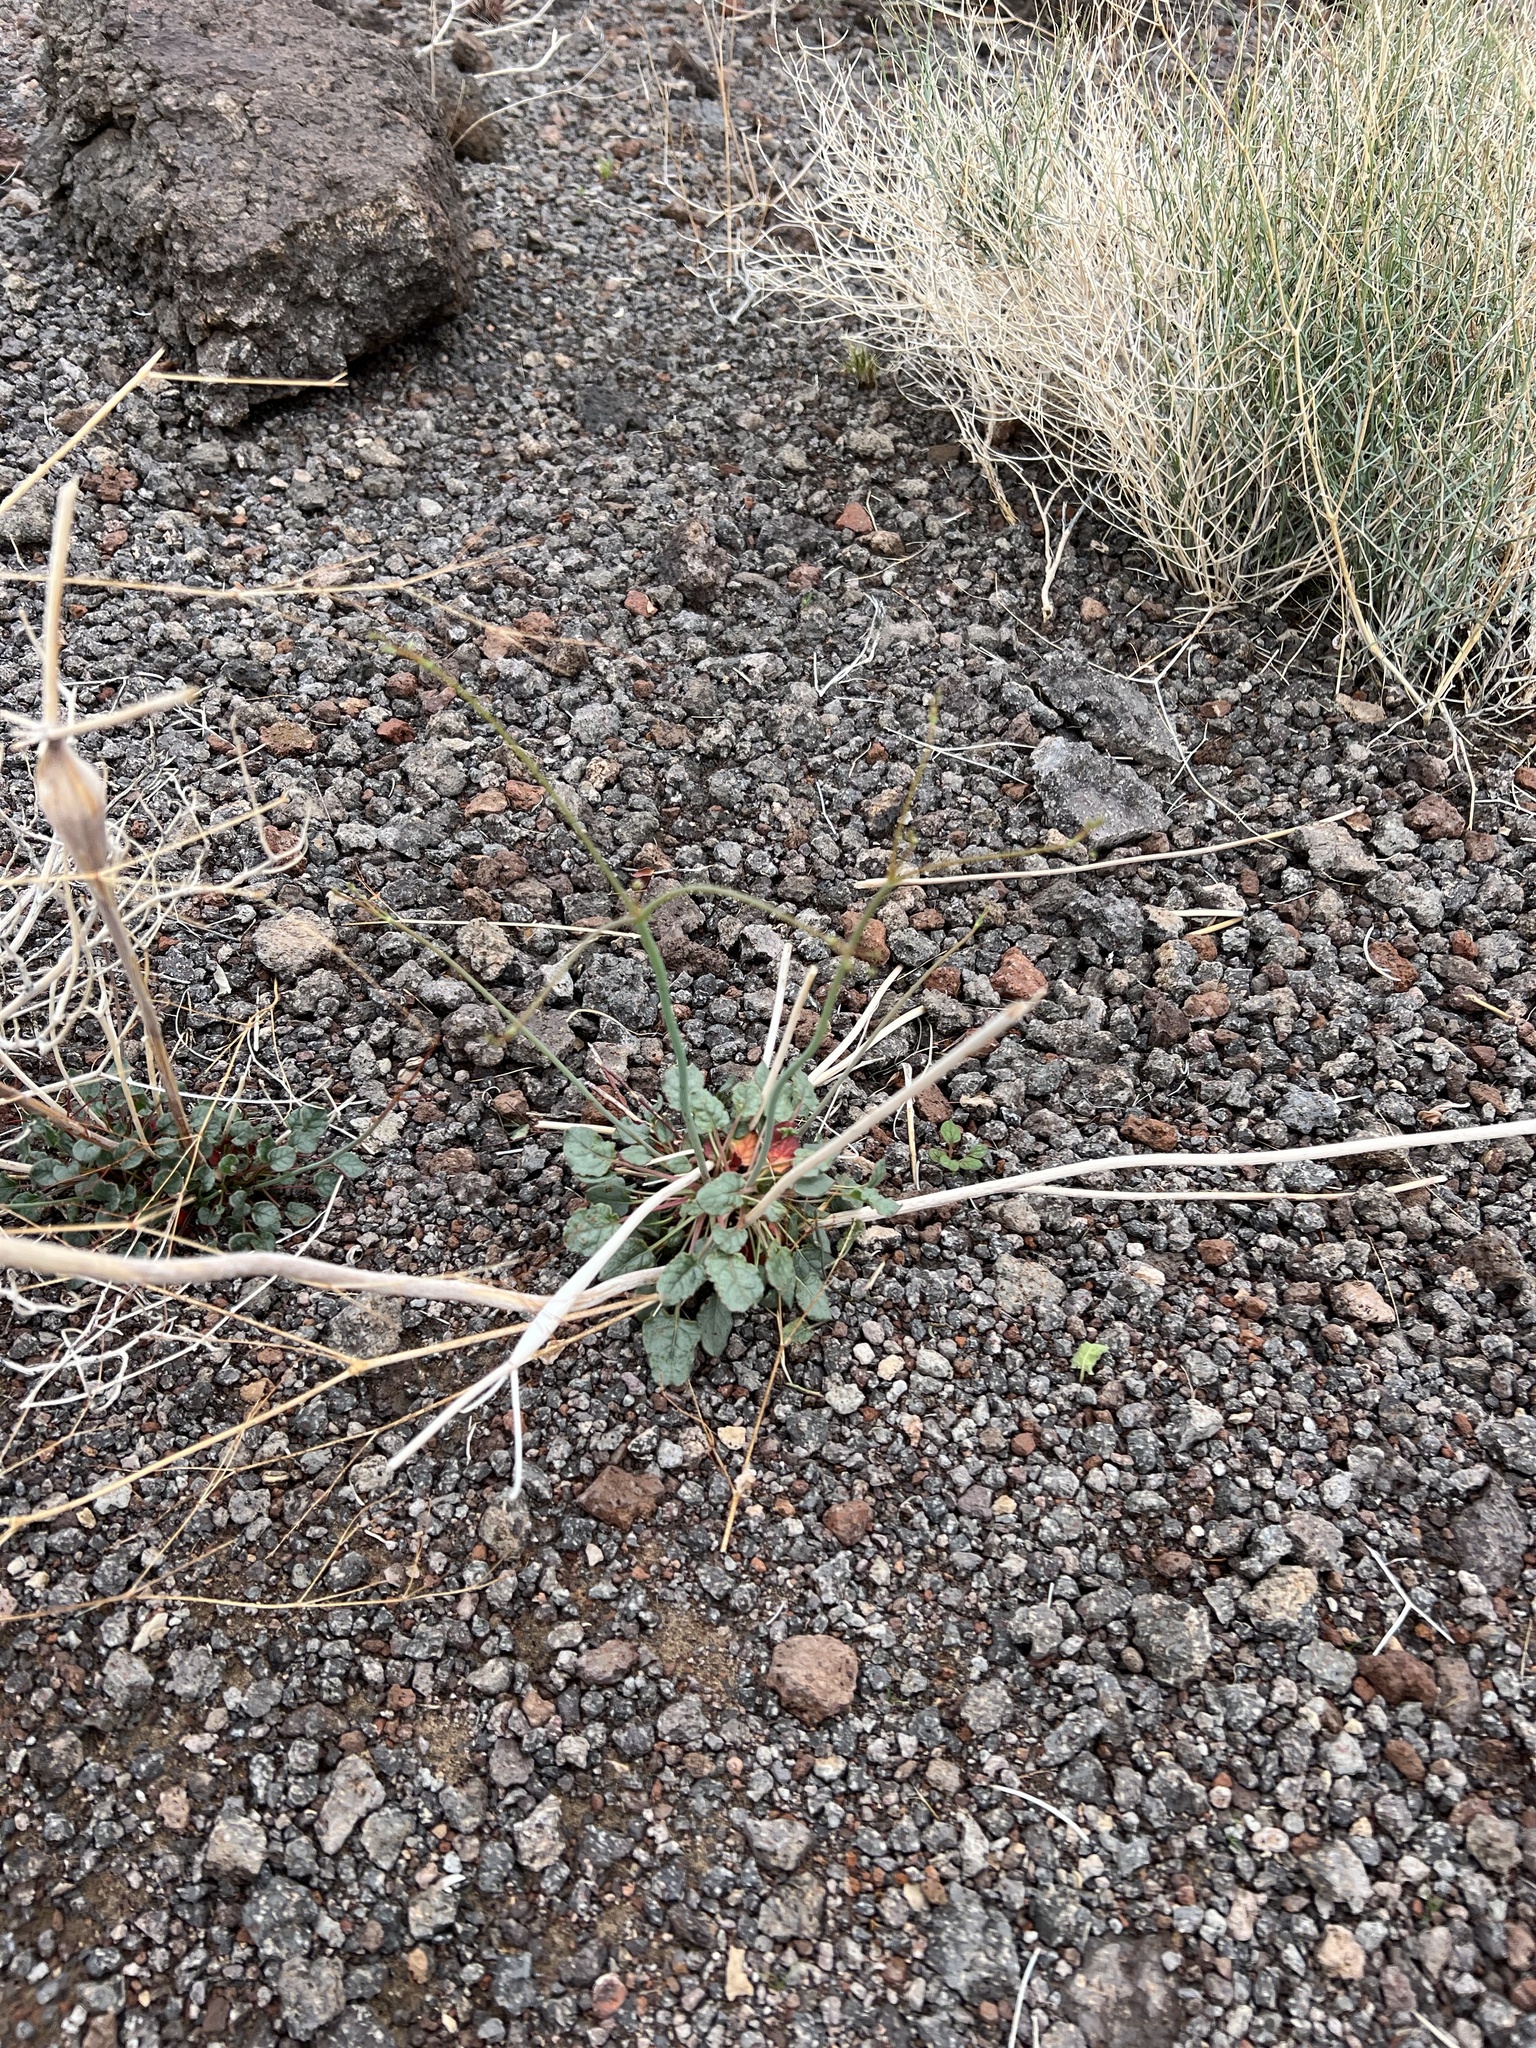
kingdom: Plantae
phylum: Tracheophyta
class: Magnoliopsida
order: Caryophyllales
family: Polygonaceae
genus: Eriogonum
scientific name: Eriogonum inflatum
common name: Desert trumpet
